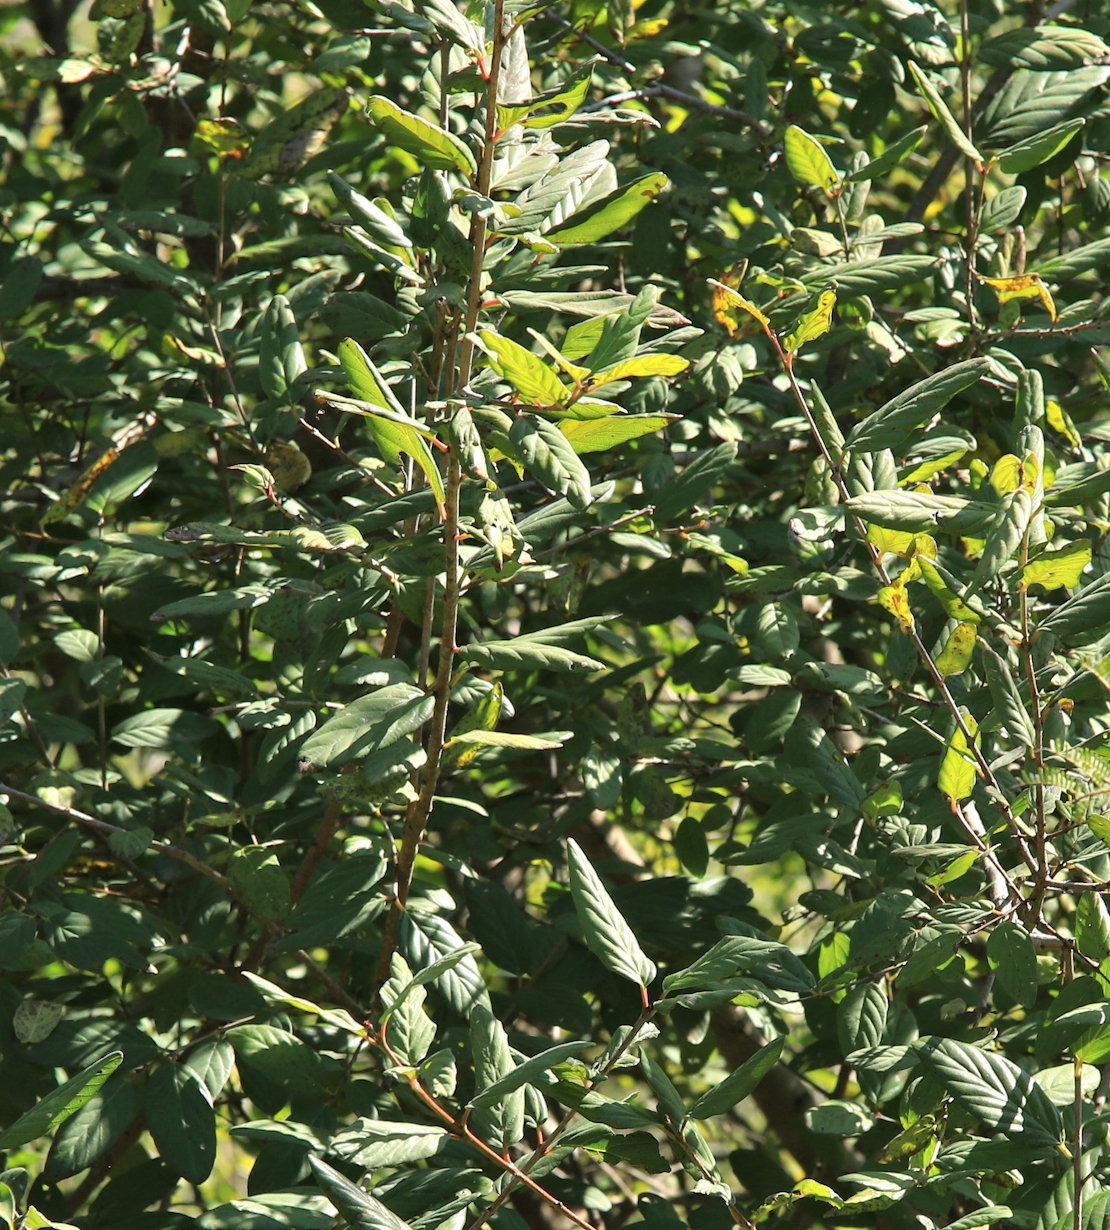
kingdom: Plantae
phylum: Tracheophyta
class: Magnoliopsida
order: Rosales
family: Rhamnaceae
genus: Phyllogeiton
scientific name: Phyllogeiton zeyheri
